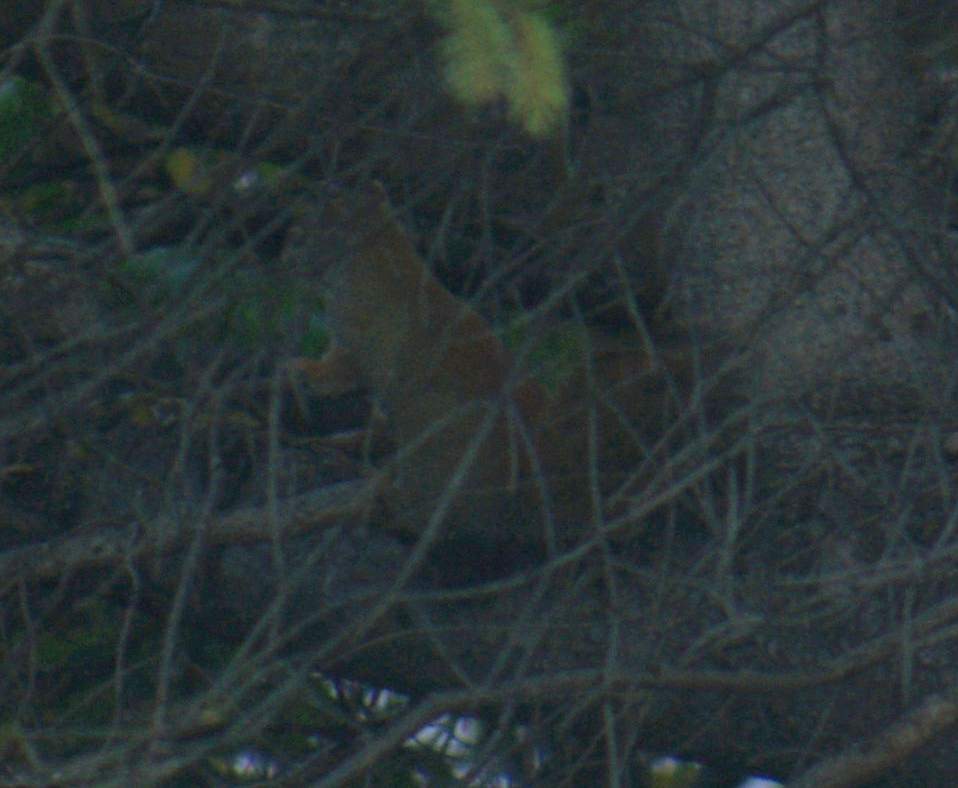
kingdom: Animalia
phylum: Chordata
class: Mammalia
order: Rodentia
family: Sciuridae
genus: Tamiasciurus
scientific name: Tamiasciurus hudsonicus
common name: Red squirrel
